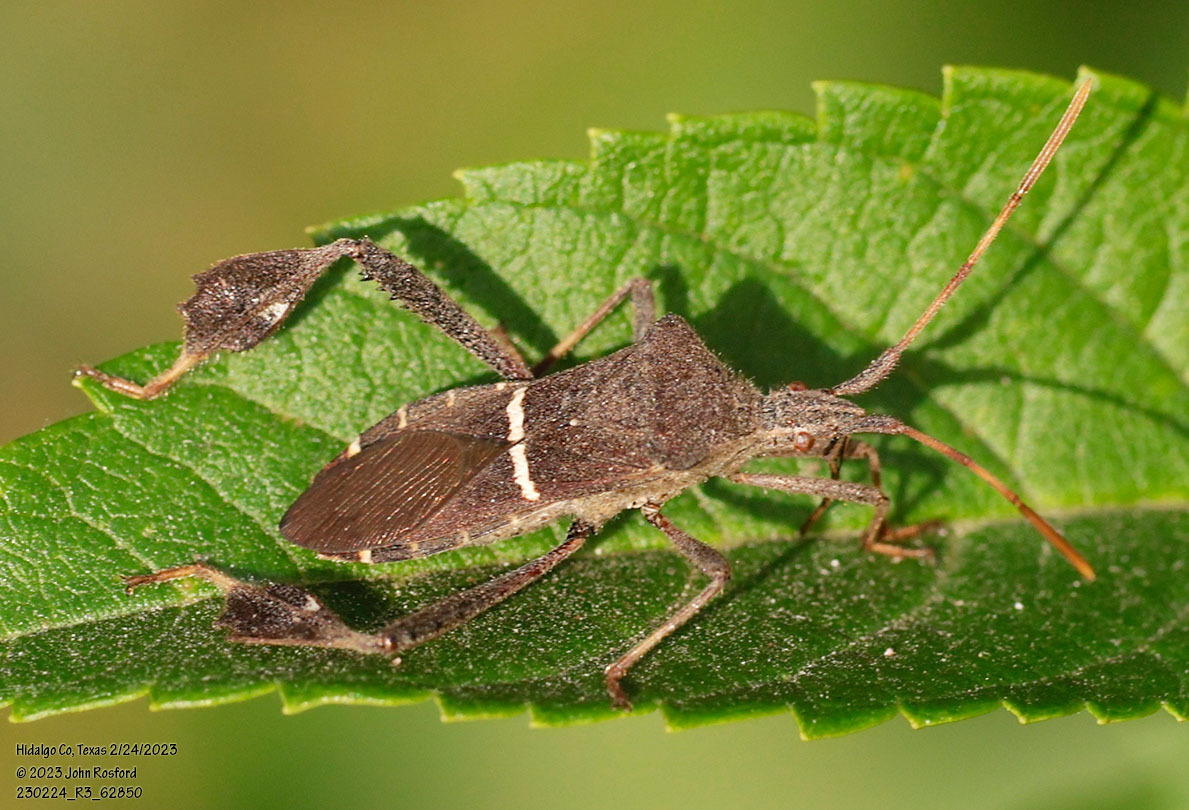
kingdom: Animalia
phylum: Arthropoda
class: Insecta
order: Hemiptera
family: Coreidae
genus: Leptoglossus
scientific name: Leptoglossus phyllopus
